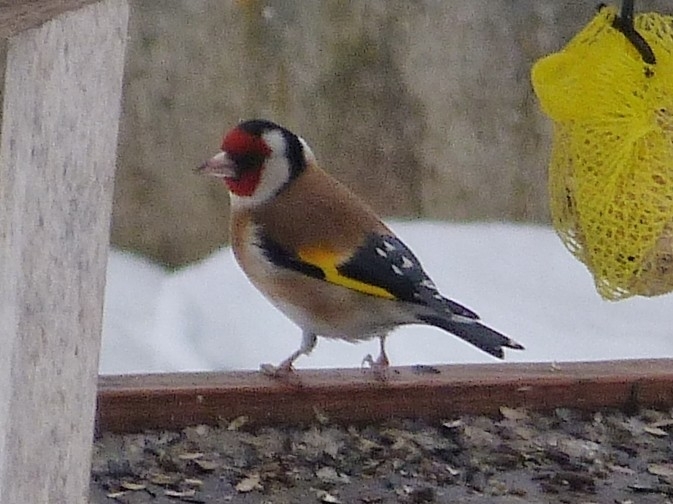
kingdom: Animalia
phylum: Chordata
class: Aves
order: Passeriformes
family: Fringillidae
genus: Carduelis
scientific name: Carduelis carduelis
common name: European goldfinch
